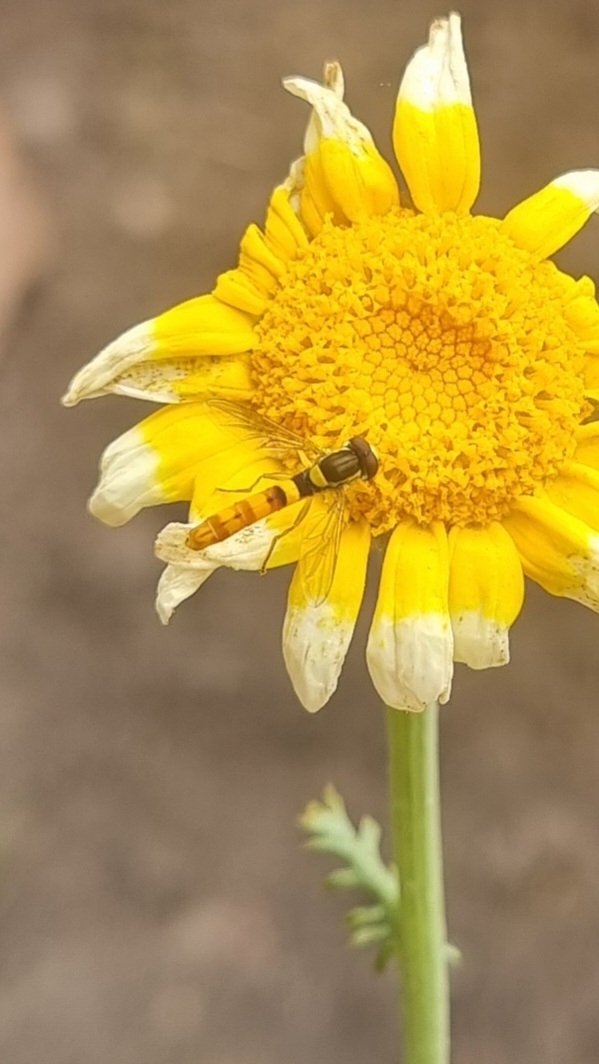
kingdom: Animalia
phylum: Arthropoda
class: Insecta
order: Diptera
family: Syrphidae
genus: Sphaerophoria
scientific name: Sphaerophoria scripta
